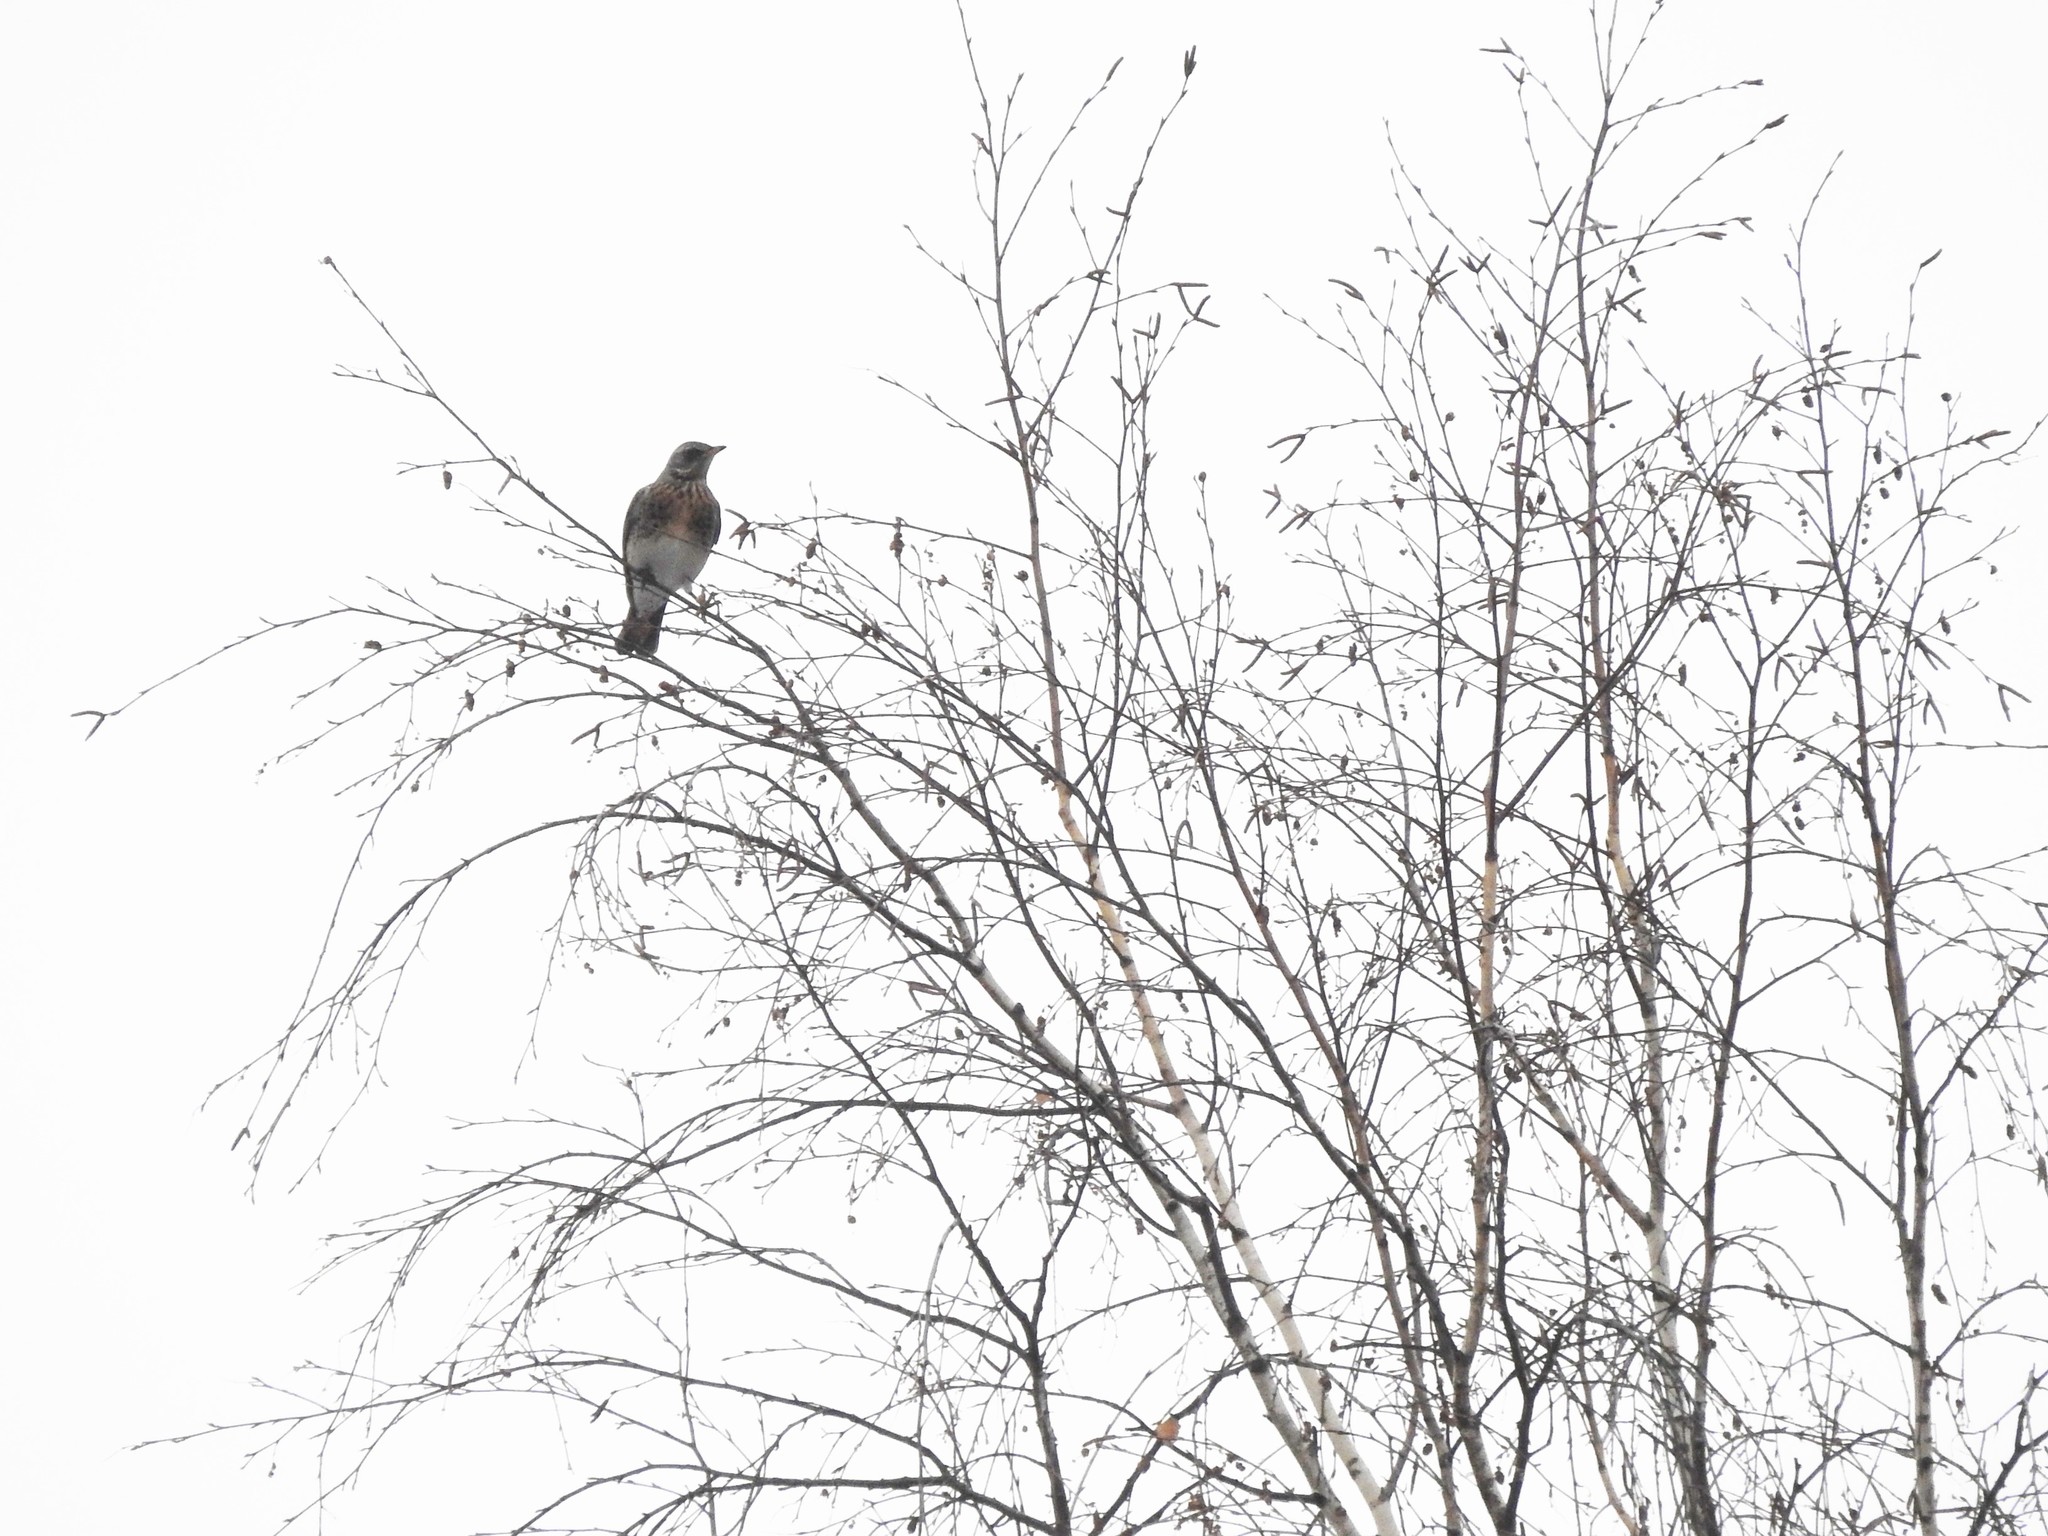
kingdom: Animalia
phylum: Chordata
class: Aves
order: Passeriformes
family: Turdidae
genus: Turdus
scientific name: Turdus pilaris
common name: Fieldfare
